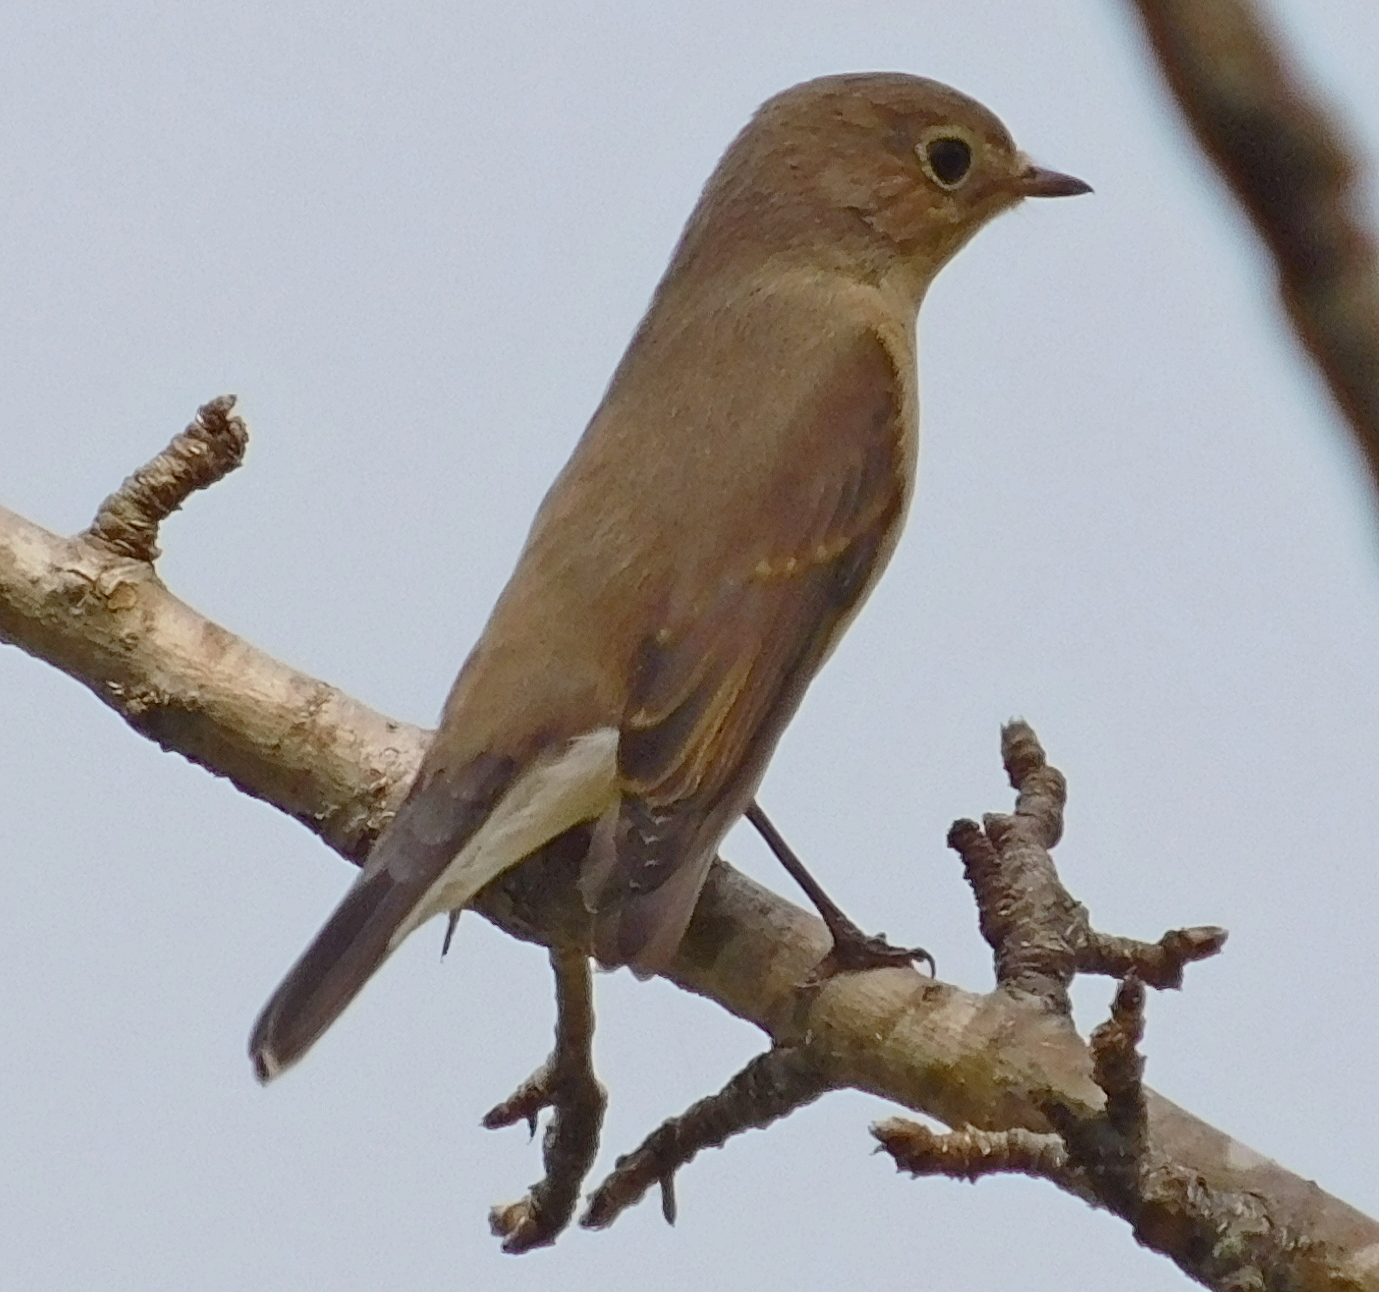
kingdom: Animalia
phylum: Chordata
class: Aves
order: Passeriformes
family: Muscicapidae
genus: Ficedula
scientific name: Ficedula parva
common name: Red-breasted flycatcher
